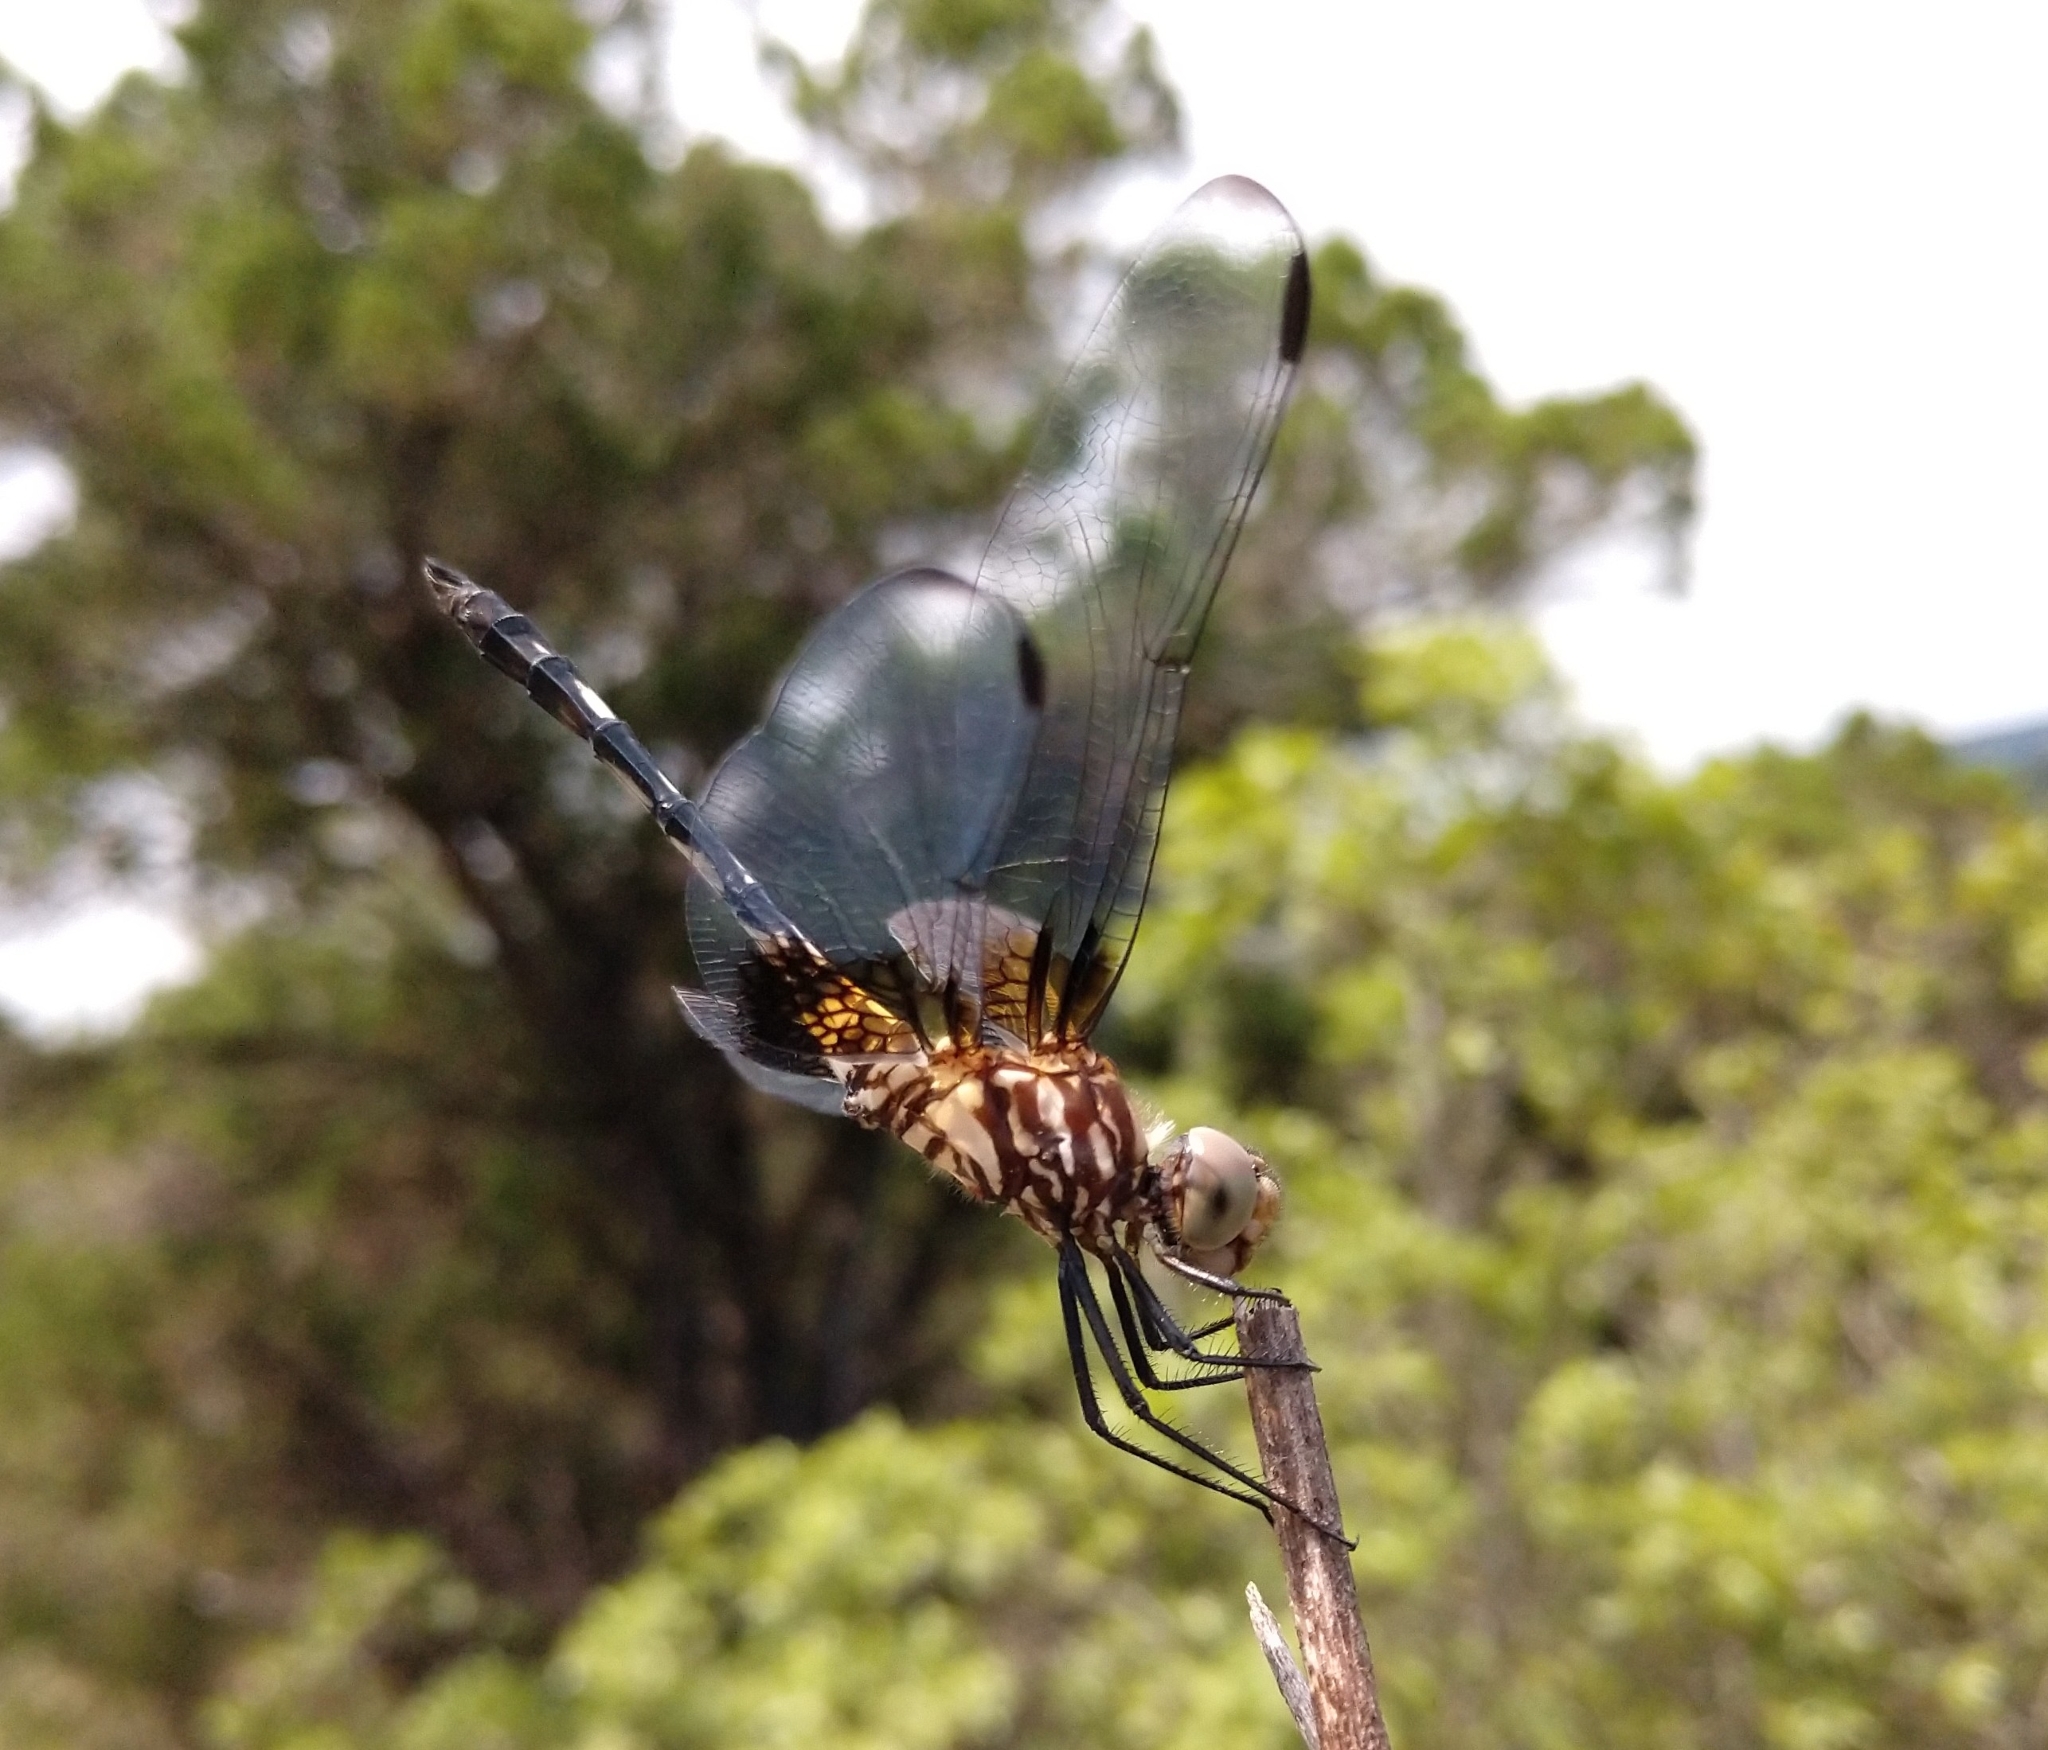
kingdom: Animalia
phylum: Arthropoda
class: Insecta
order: Odonata
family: Libellulidae
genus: Dythemis
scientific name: Dythemis fugax
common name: Checkered setwing
